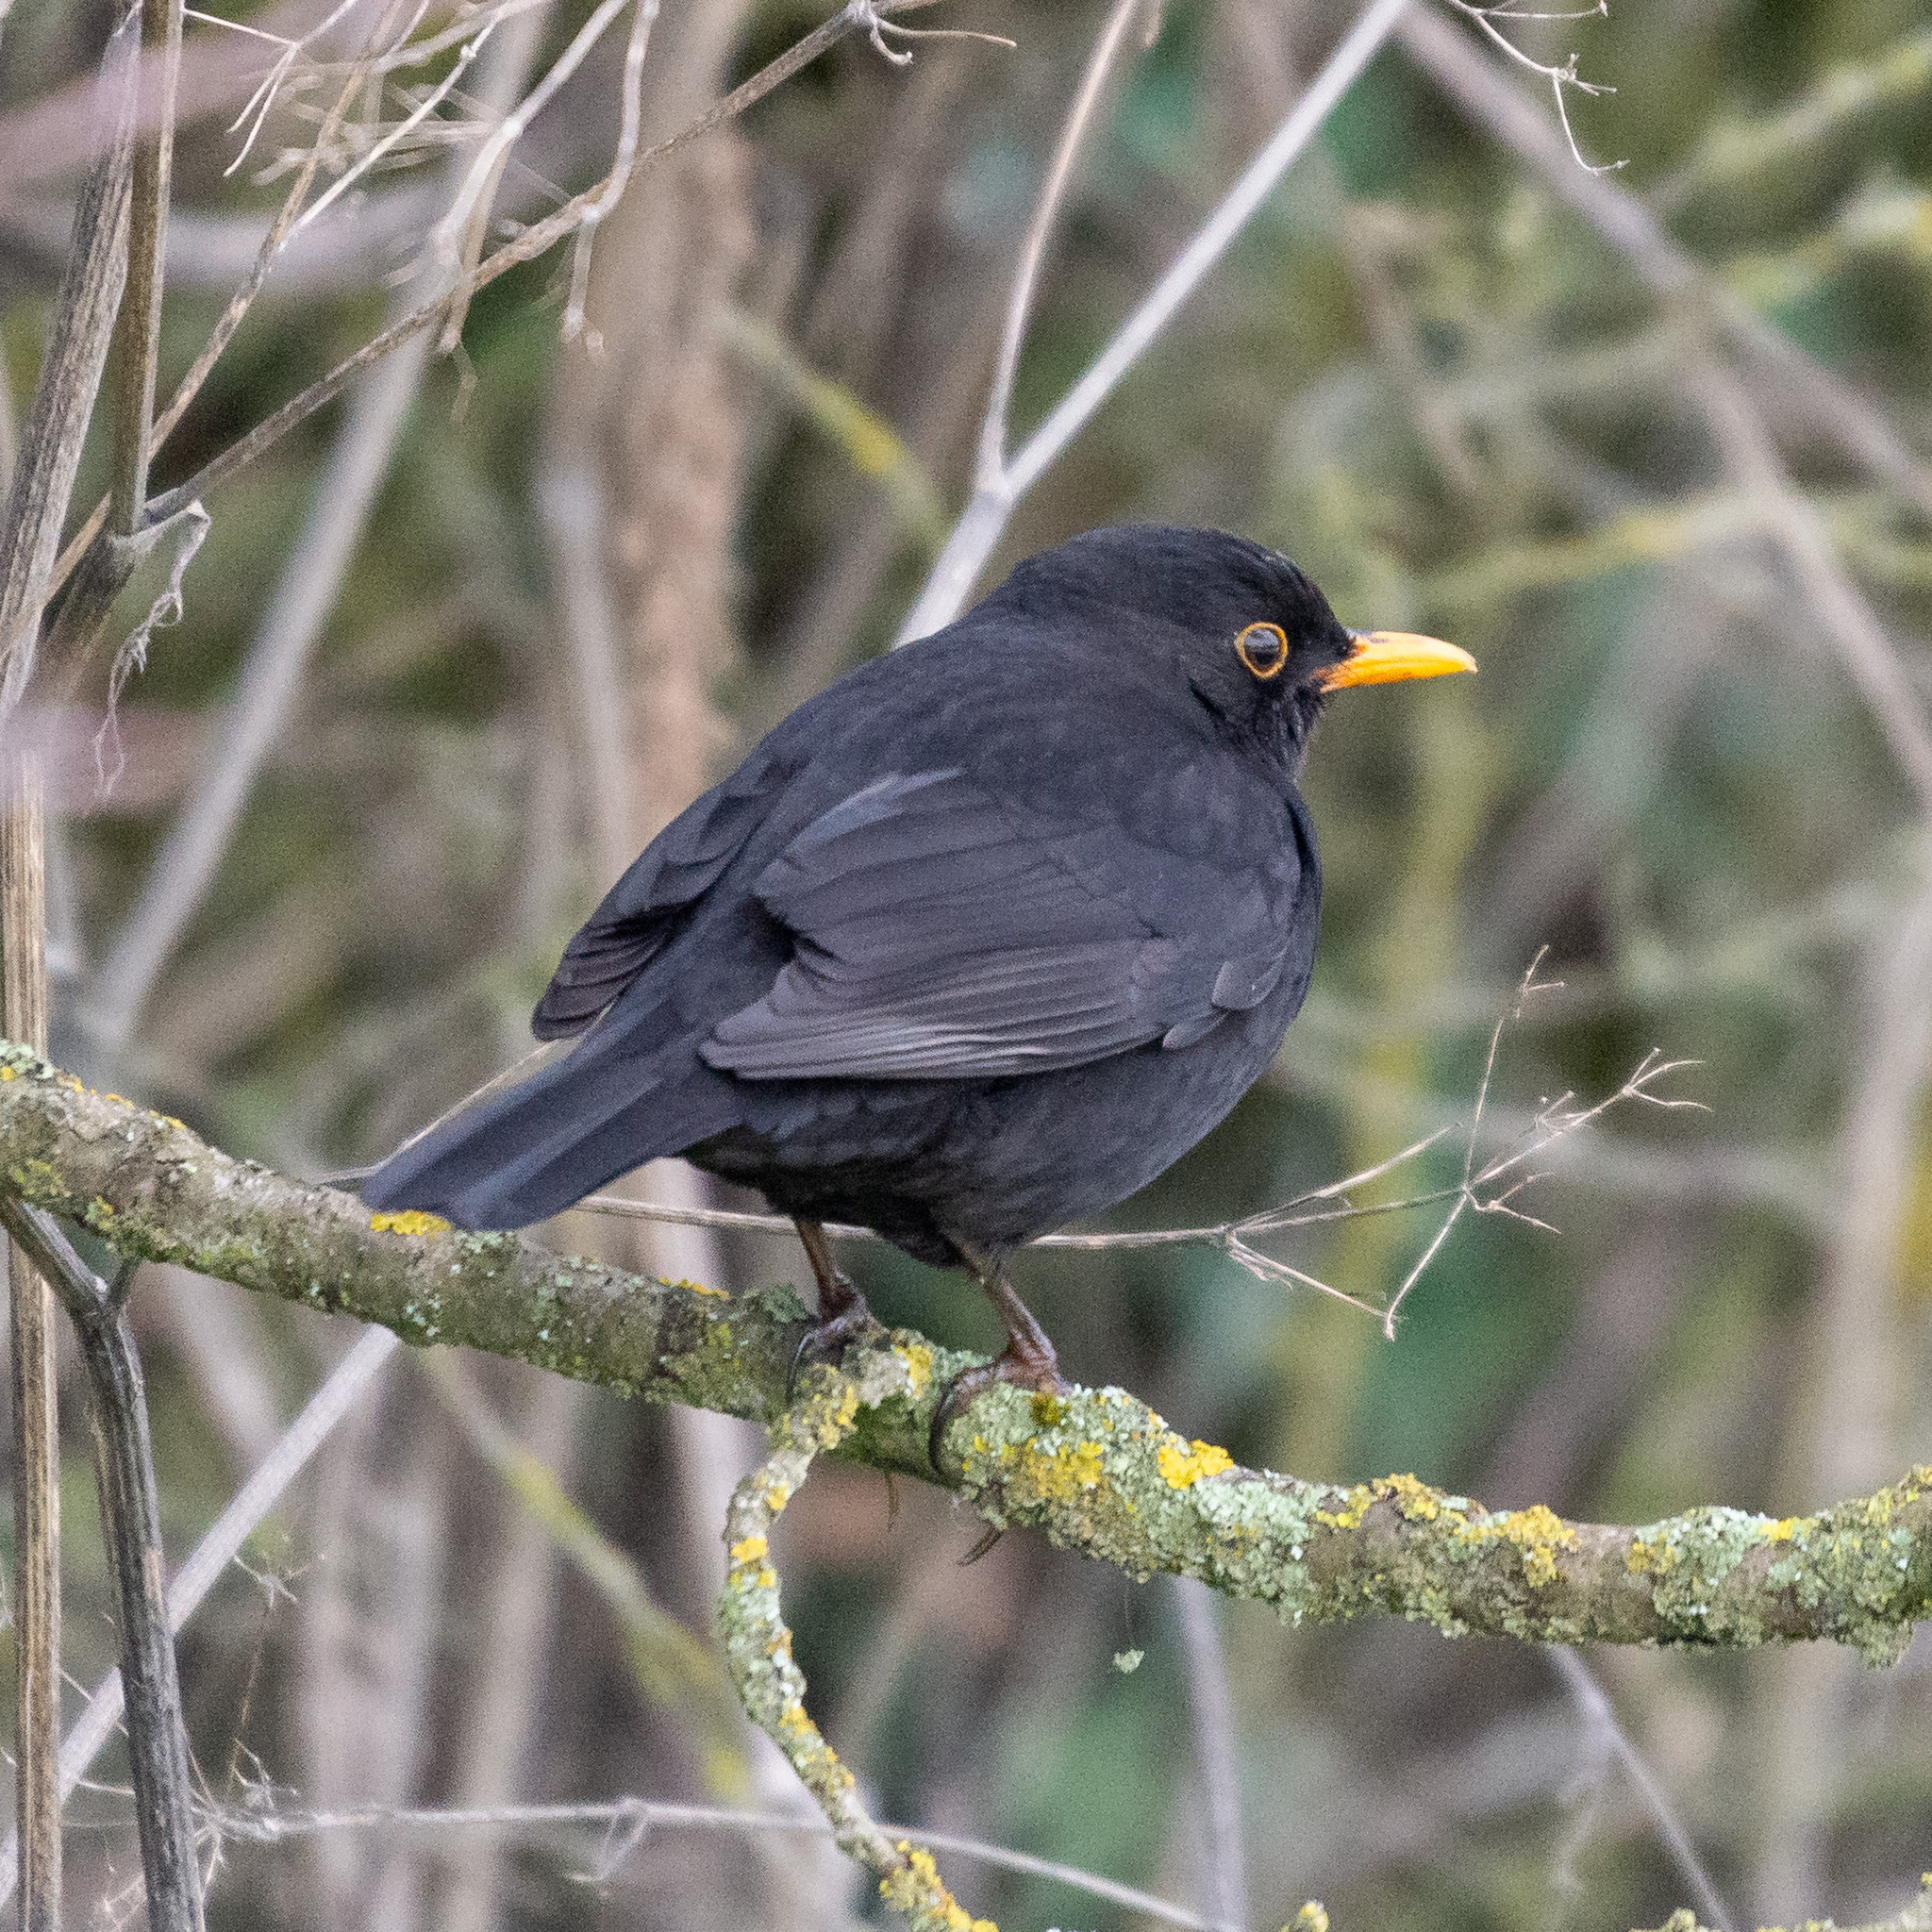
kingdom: Animalia
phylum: Chordata
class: Aves
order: Passeriformes
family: Turdidae
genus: Turdus
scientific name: Turdus merula
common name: Common blackbird
